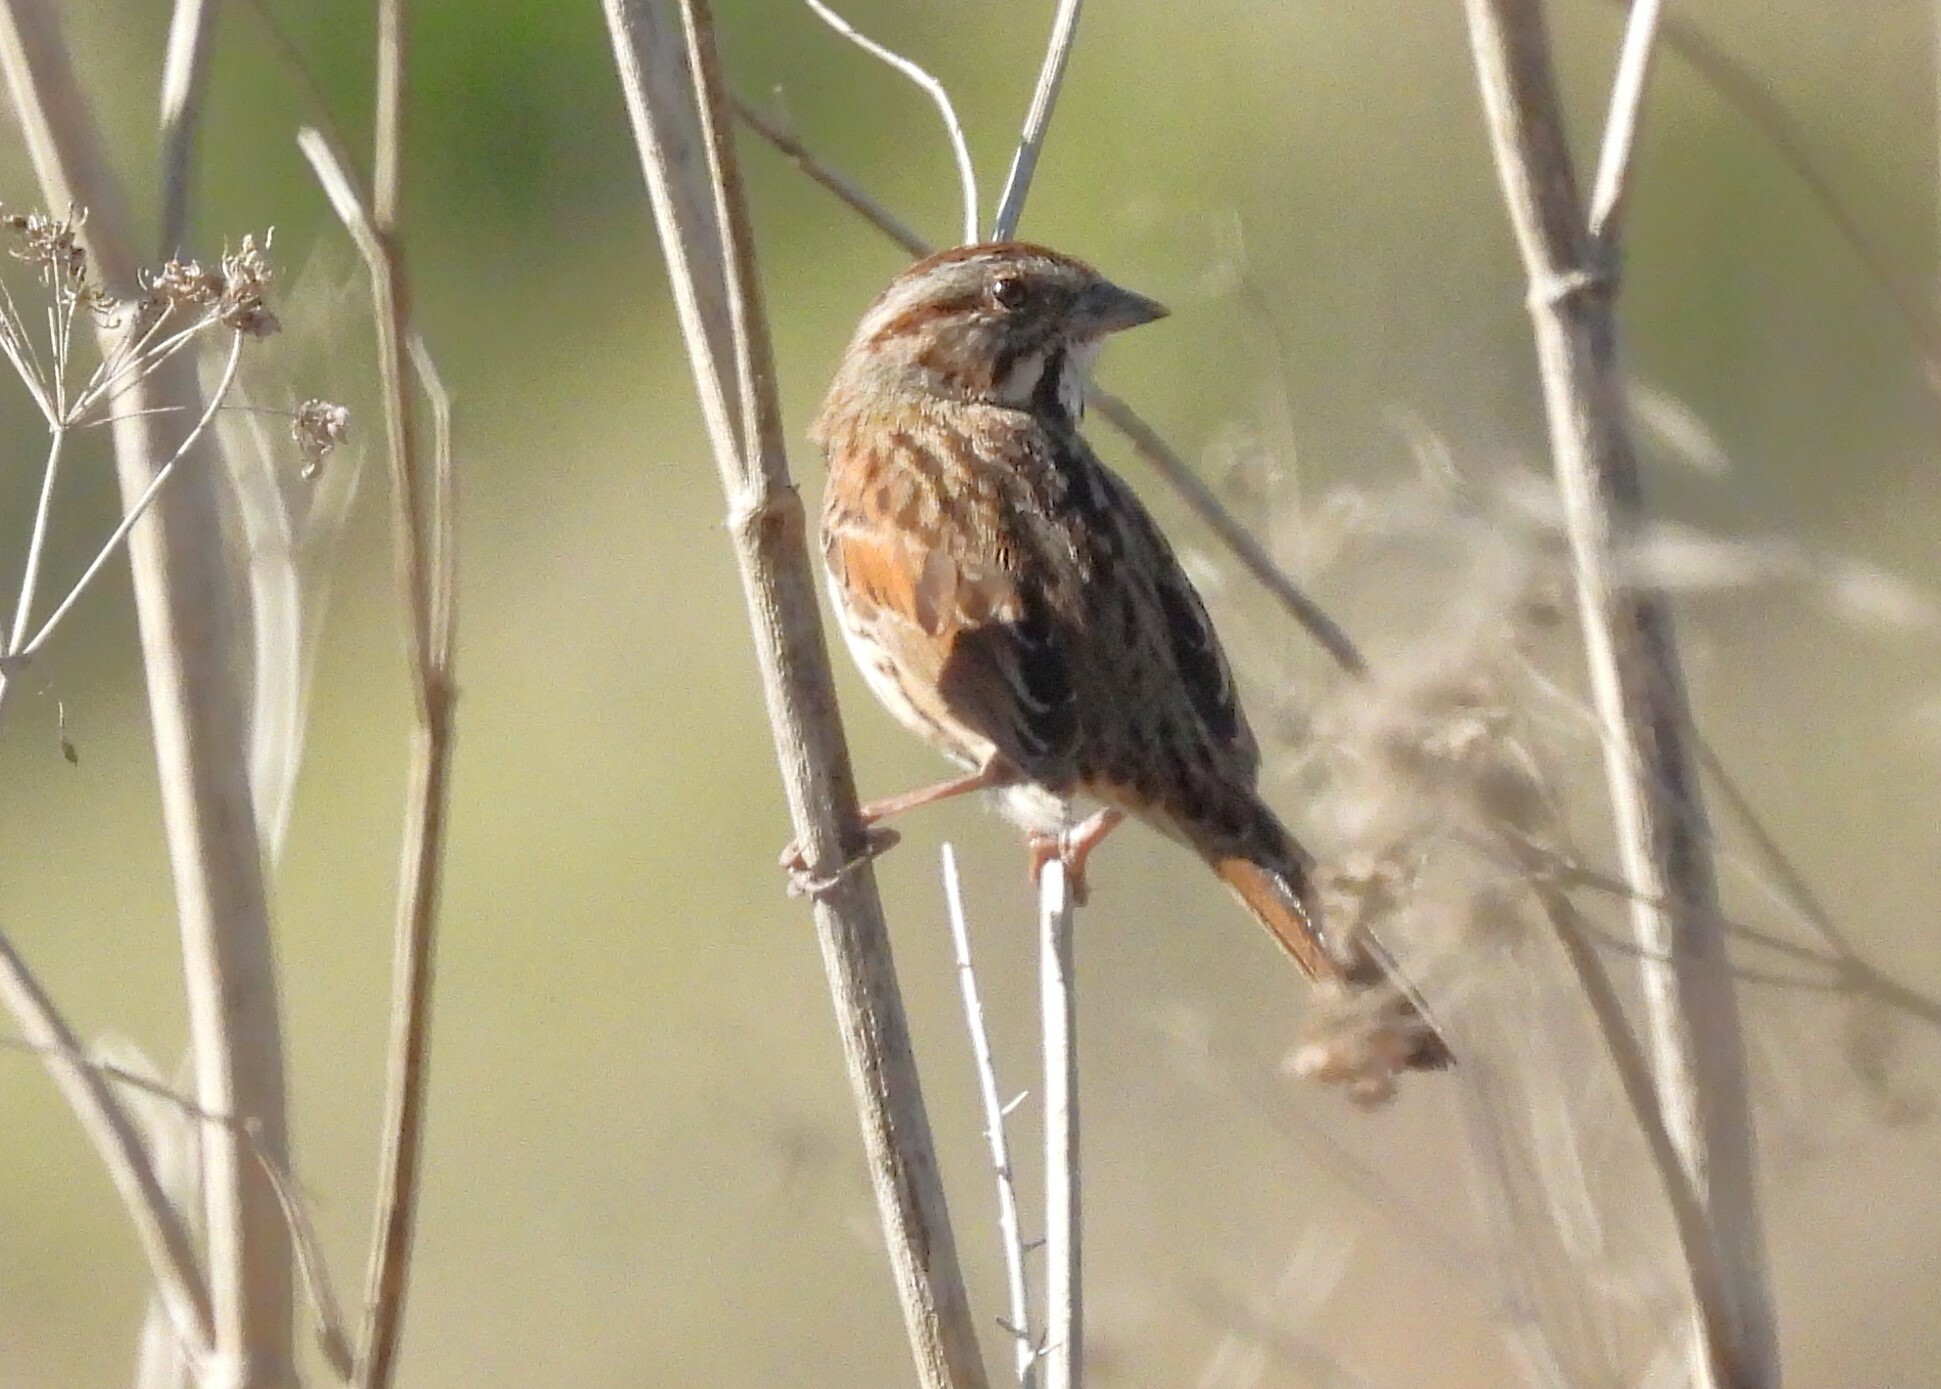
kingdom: Animalia
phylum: Chordata
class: Aves
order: Passeriformes
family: Passerellidae
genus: Melospiza
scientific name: Melospiza melodia
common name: Song sparrow
